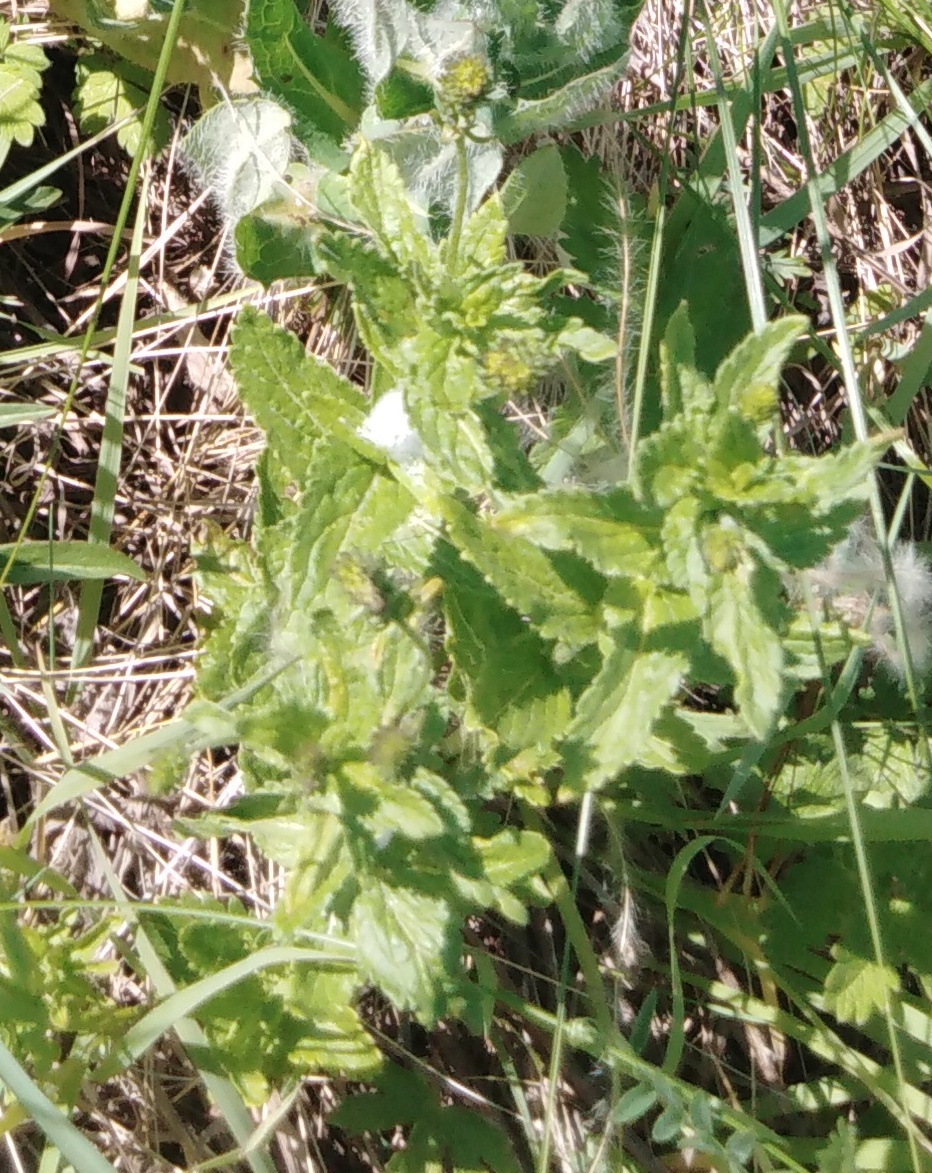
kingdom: Plantae
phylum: Tracheophyta
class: Magnoliopsida
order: Lamiales
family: Plantaginaceae
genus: Veronica
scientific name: Veronica teucrium
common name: Large speedwell
